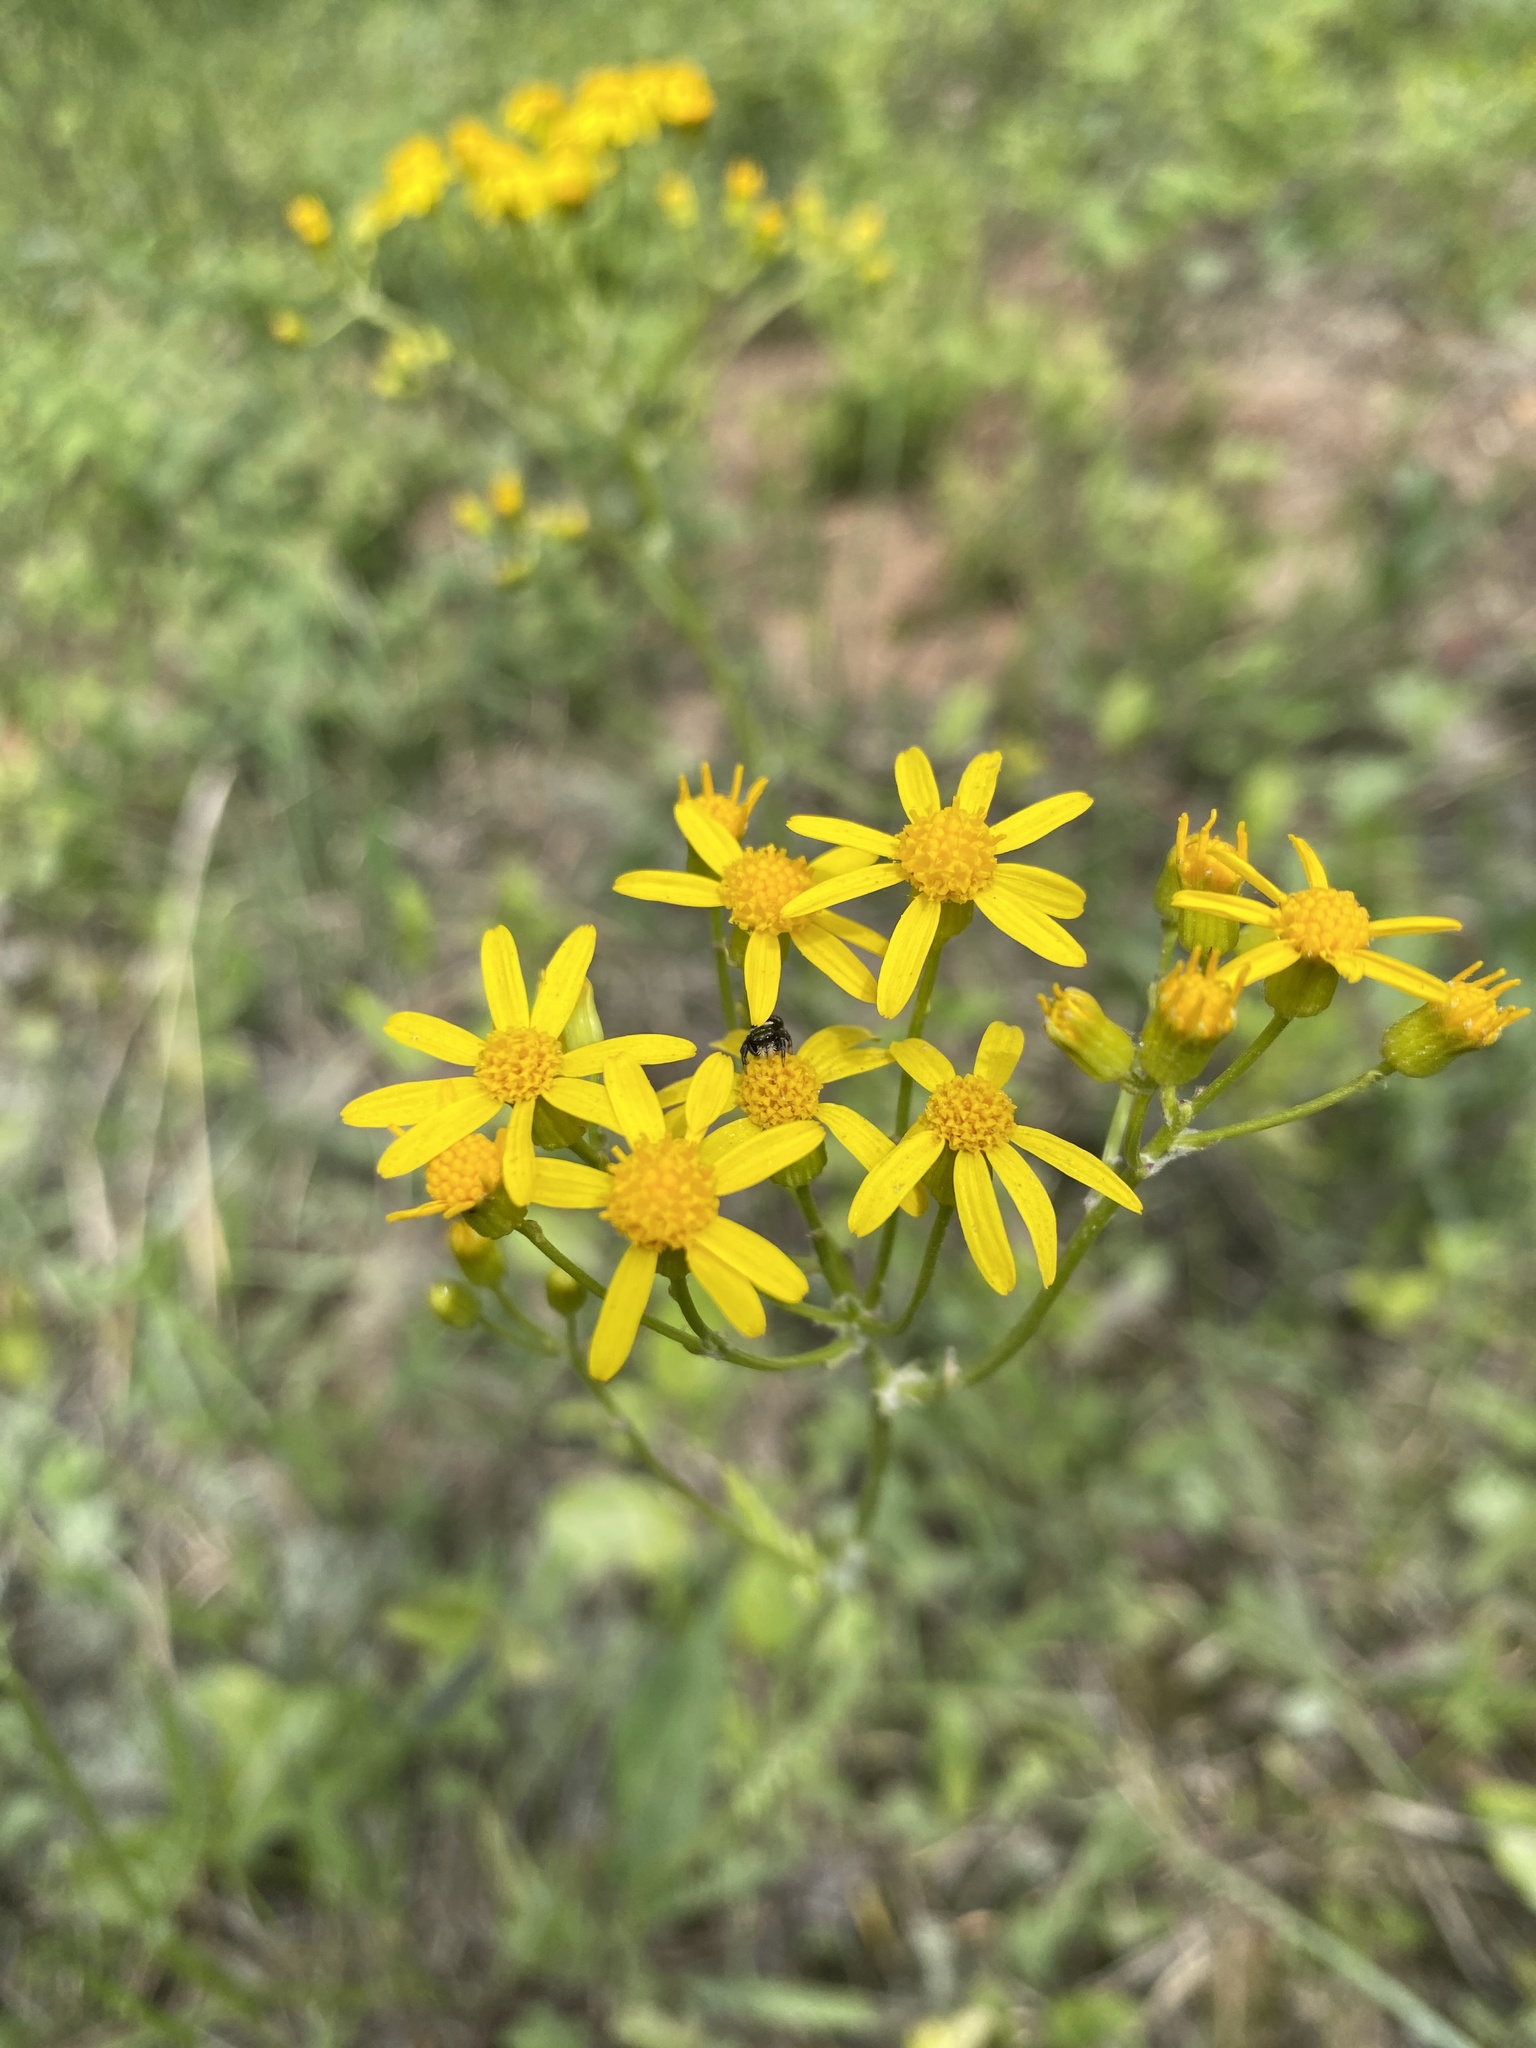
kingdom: Plantae
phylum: Tracheophyta
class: Magnoliopsida
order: Asterales
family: Asteraceae
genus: Packera
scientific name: Packera anonyma
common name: Small ragwort
